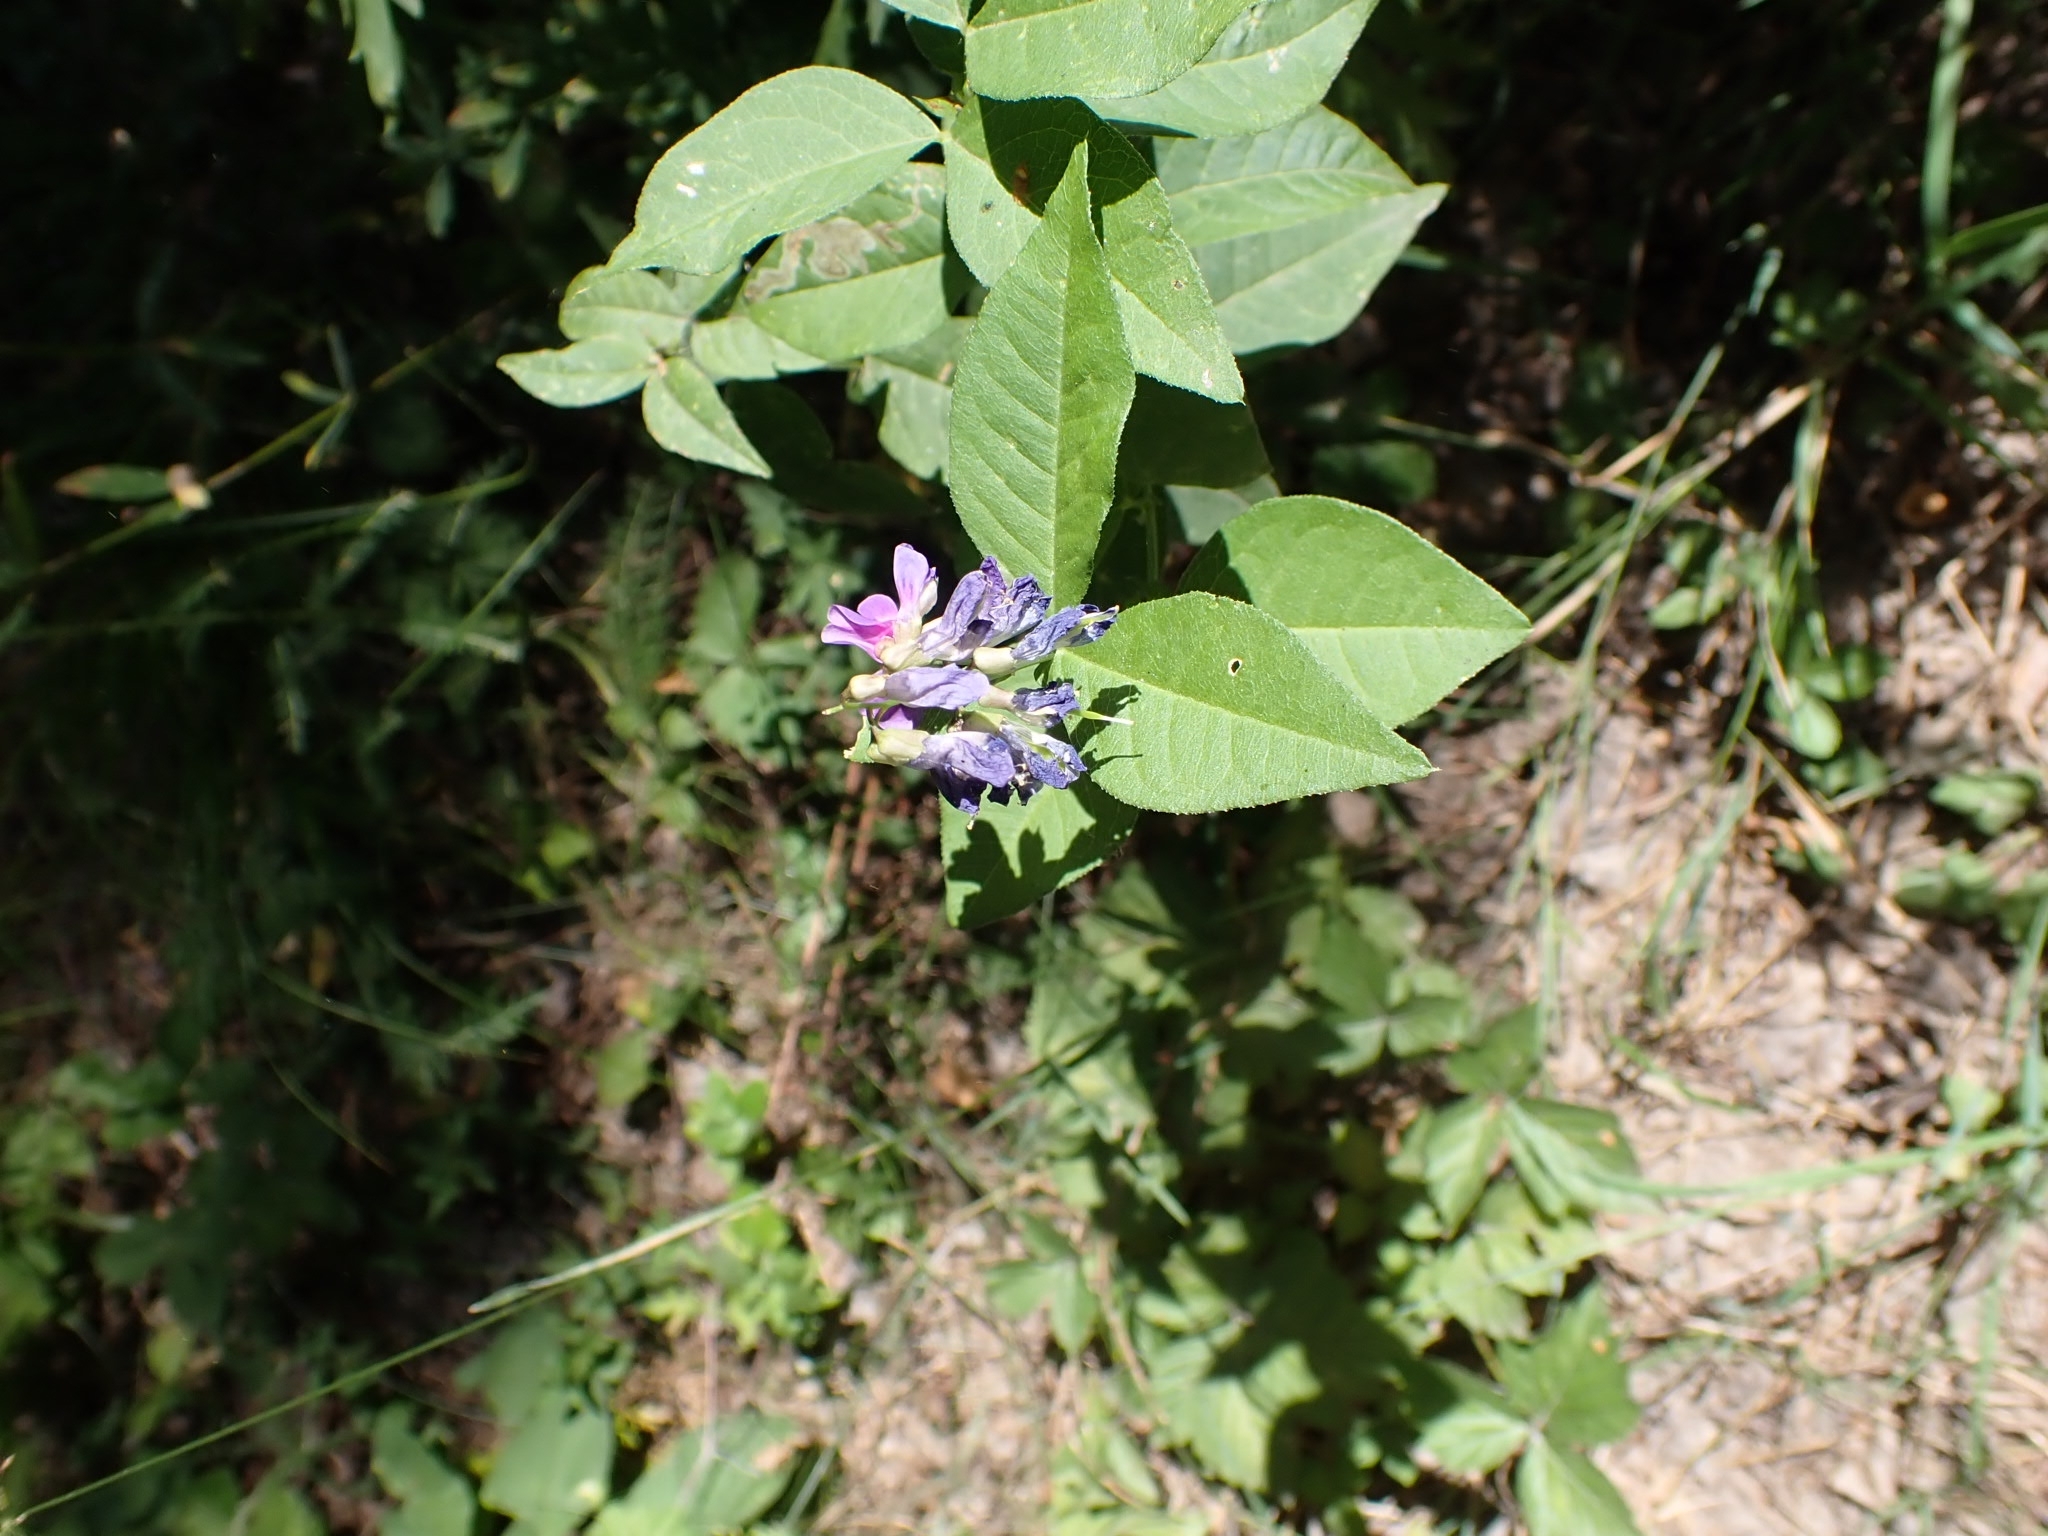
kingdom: Plantae
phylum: Tracheophyta
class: Magnoliopsida
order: Fabales
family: Fabaceae
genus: Vicia
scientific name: Vicia unijuga
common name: Two-leaf vetch
